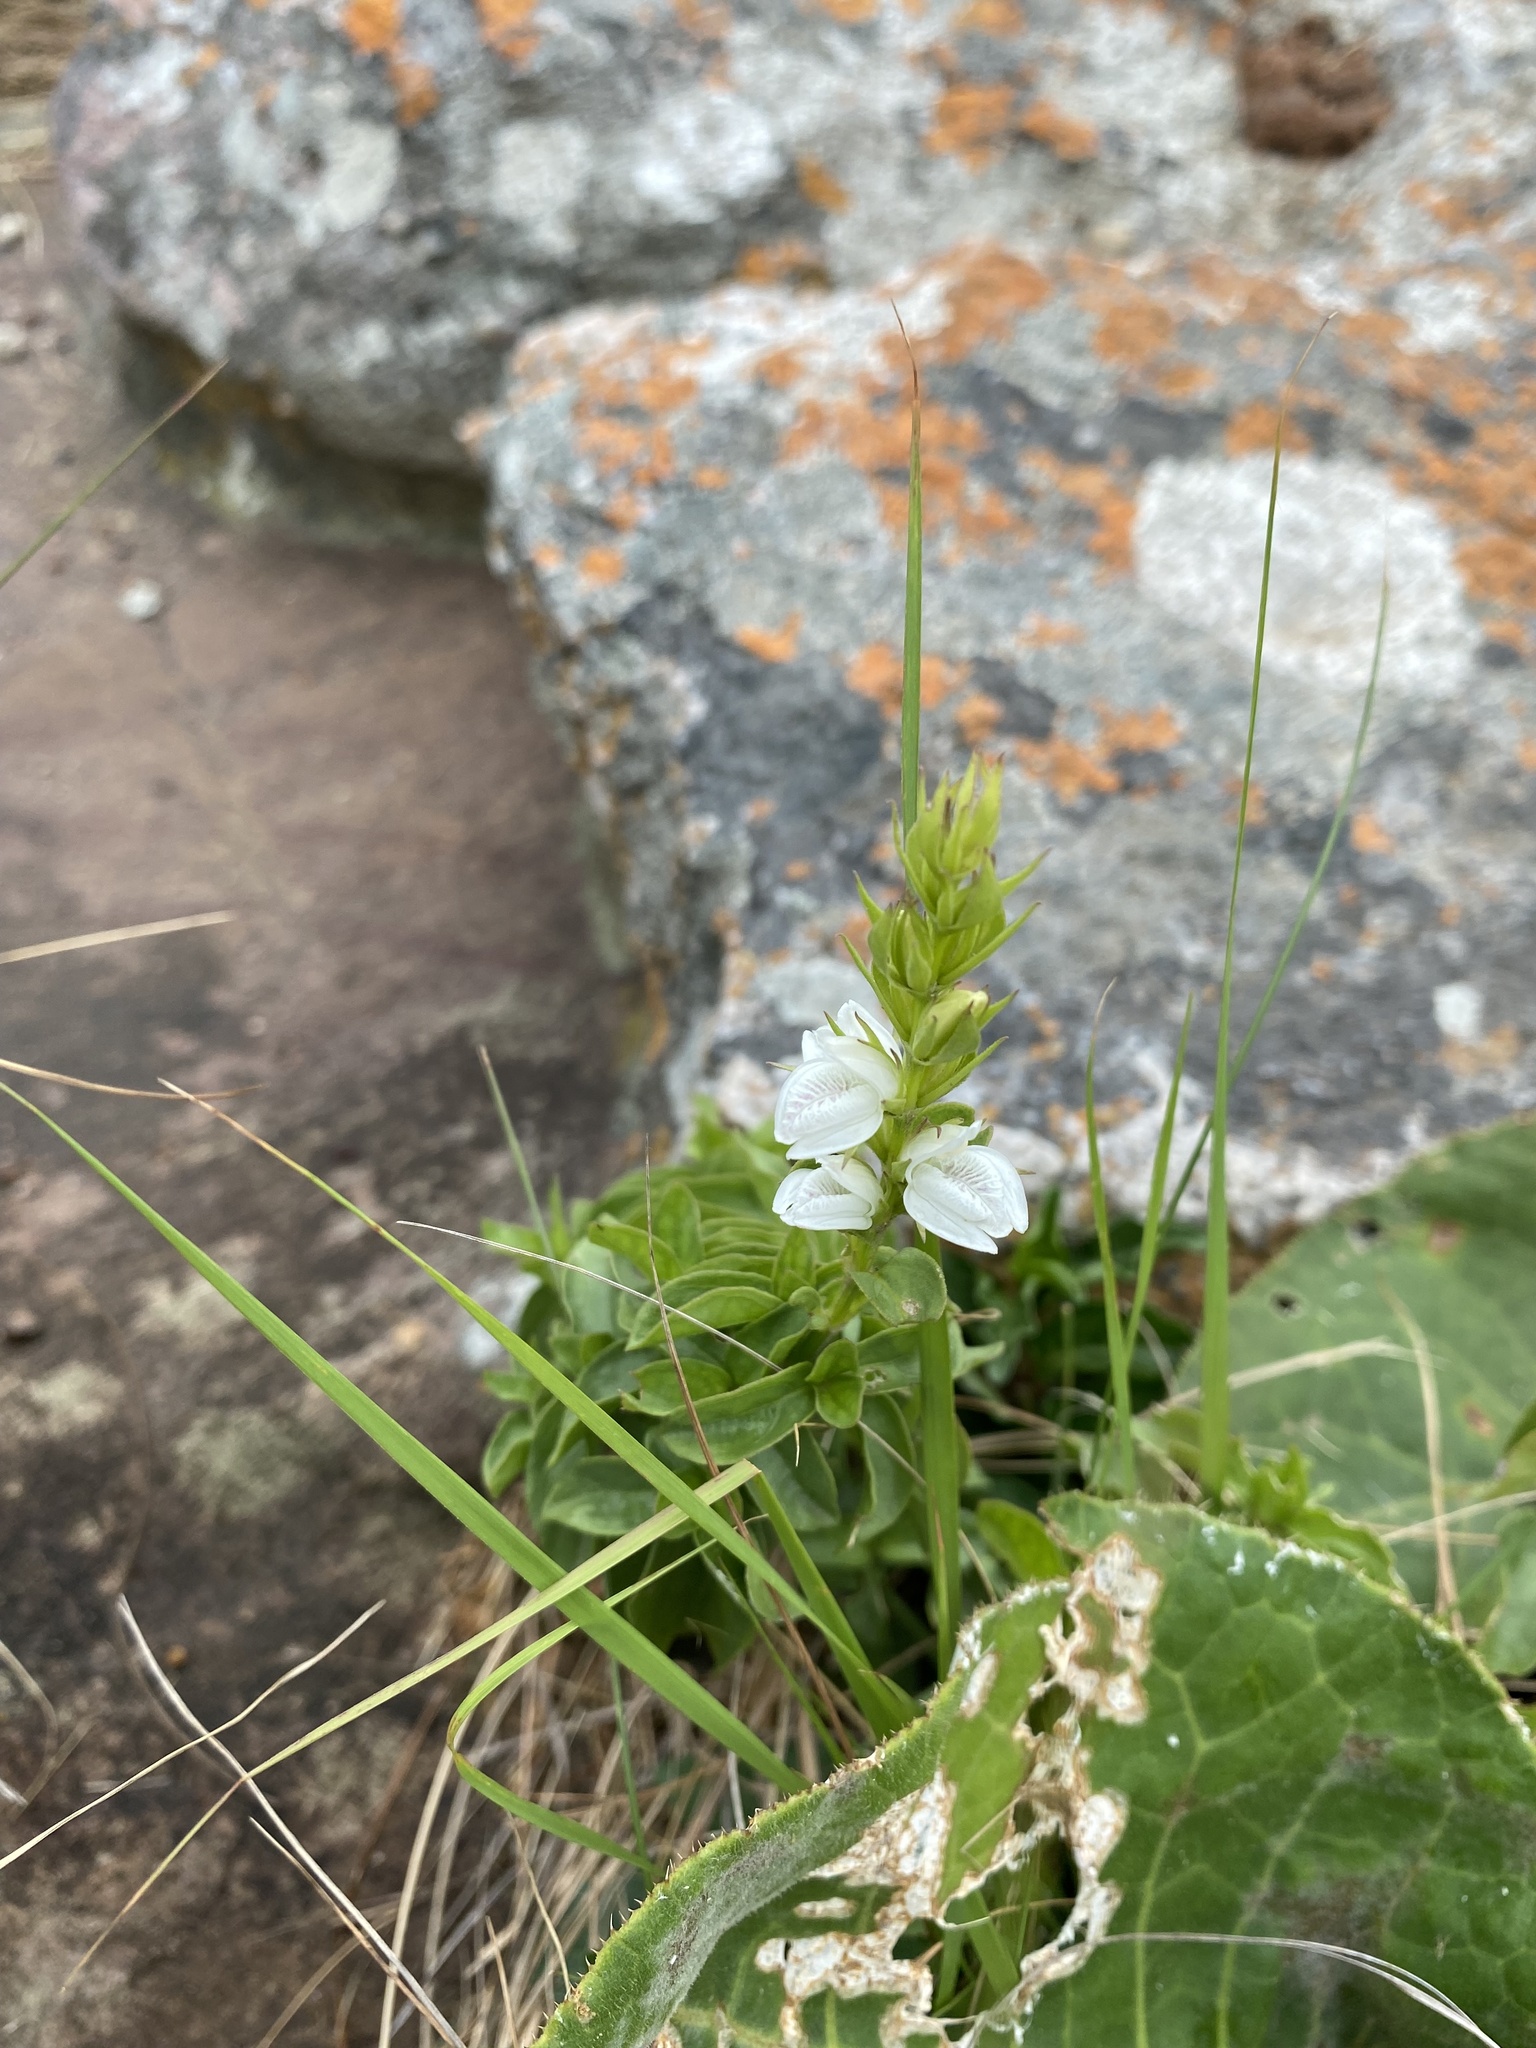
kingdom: Plantae
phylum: Tracheophyta
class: Magnoliopsida
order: Lamiales
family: Acanthaceae
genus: Isoglossa
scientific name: Isoglossa ovata
